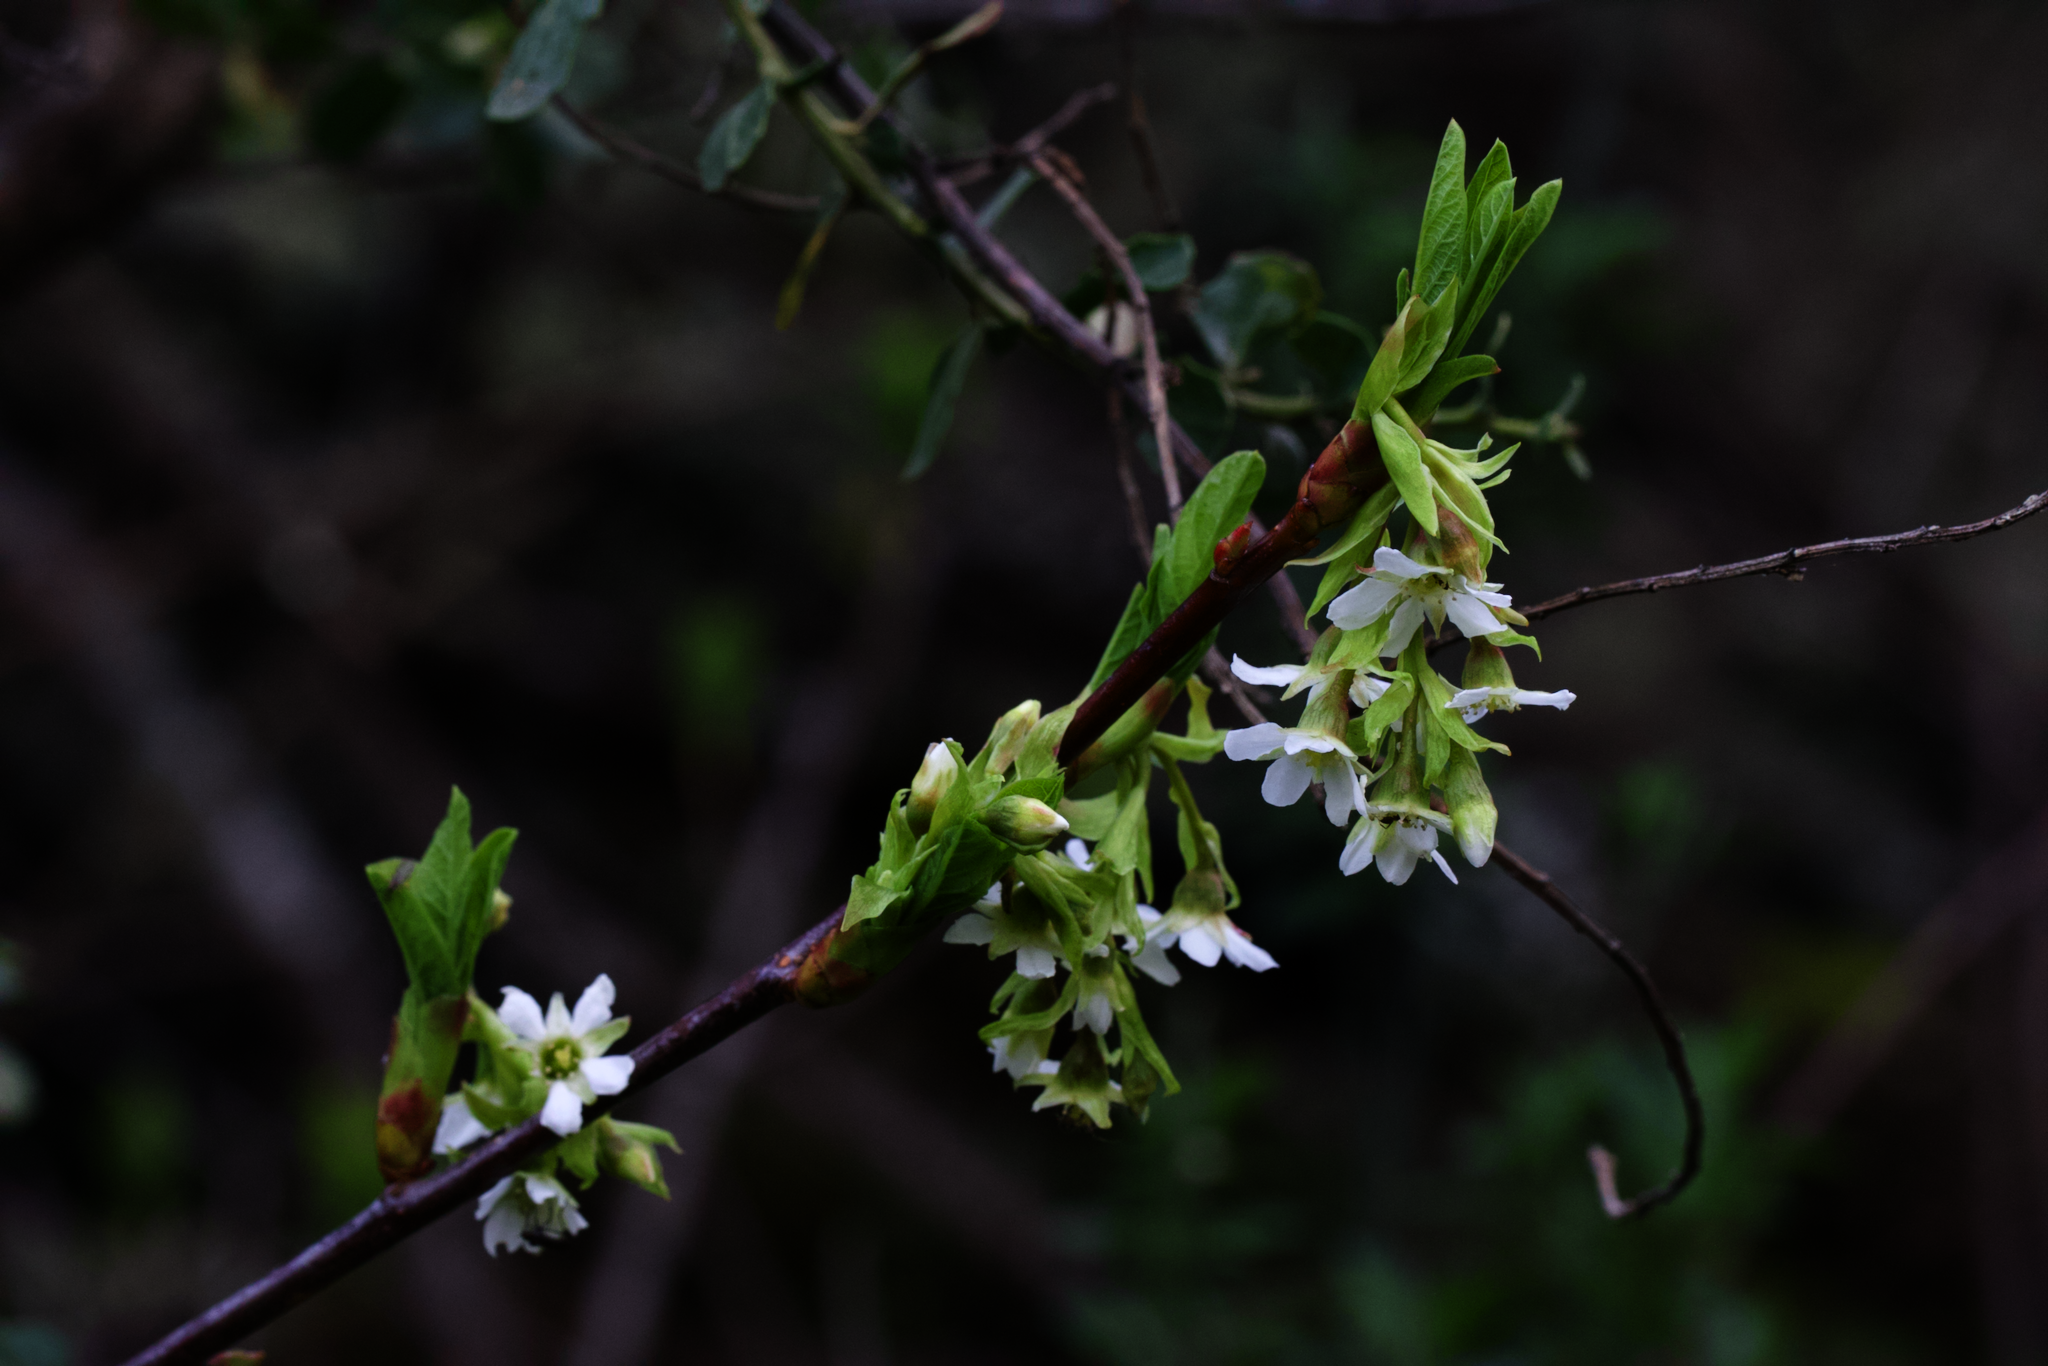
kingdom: Plantae
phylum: Tracheophyta
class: Magnoliopsida
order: Rosales
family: Rosaceae
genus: Oemleria
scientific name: Oemleria cerasiformis
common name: Osoberry
